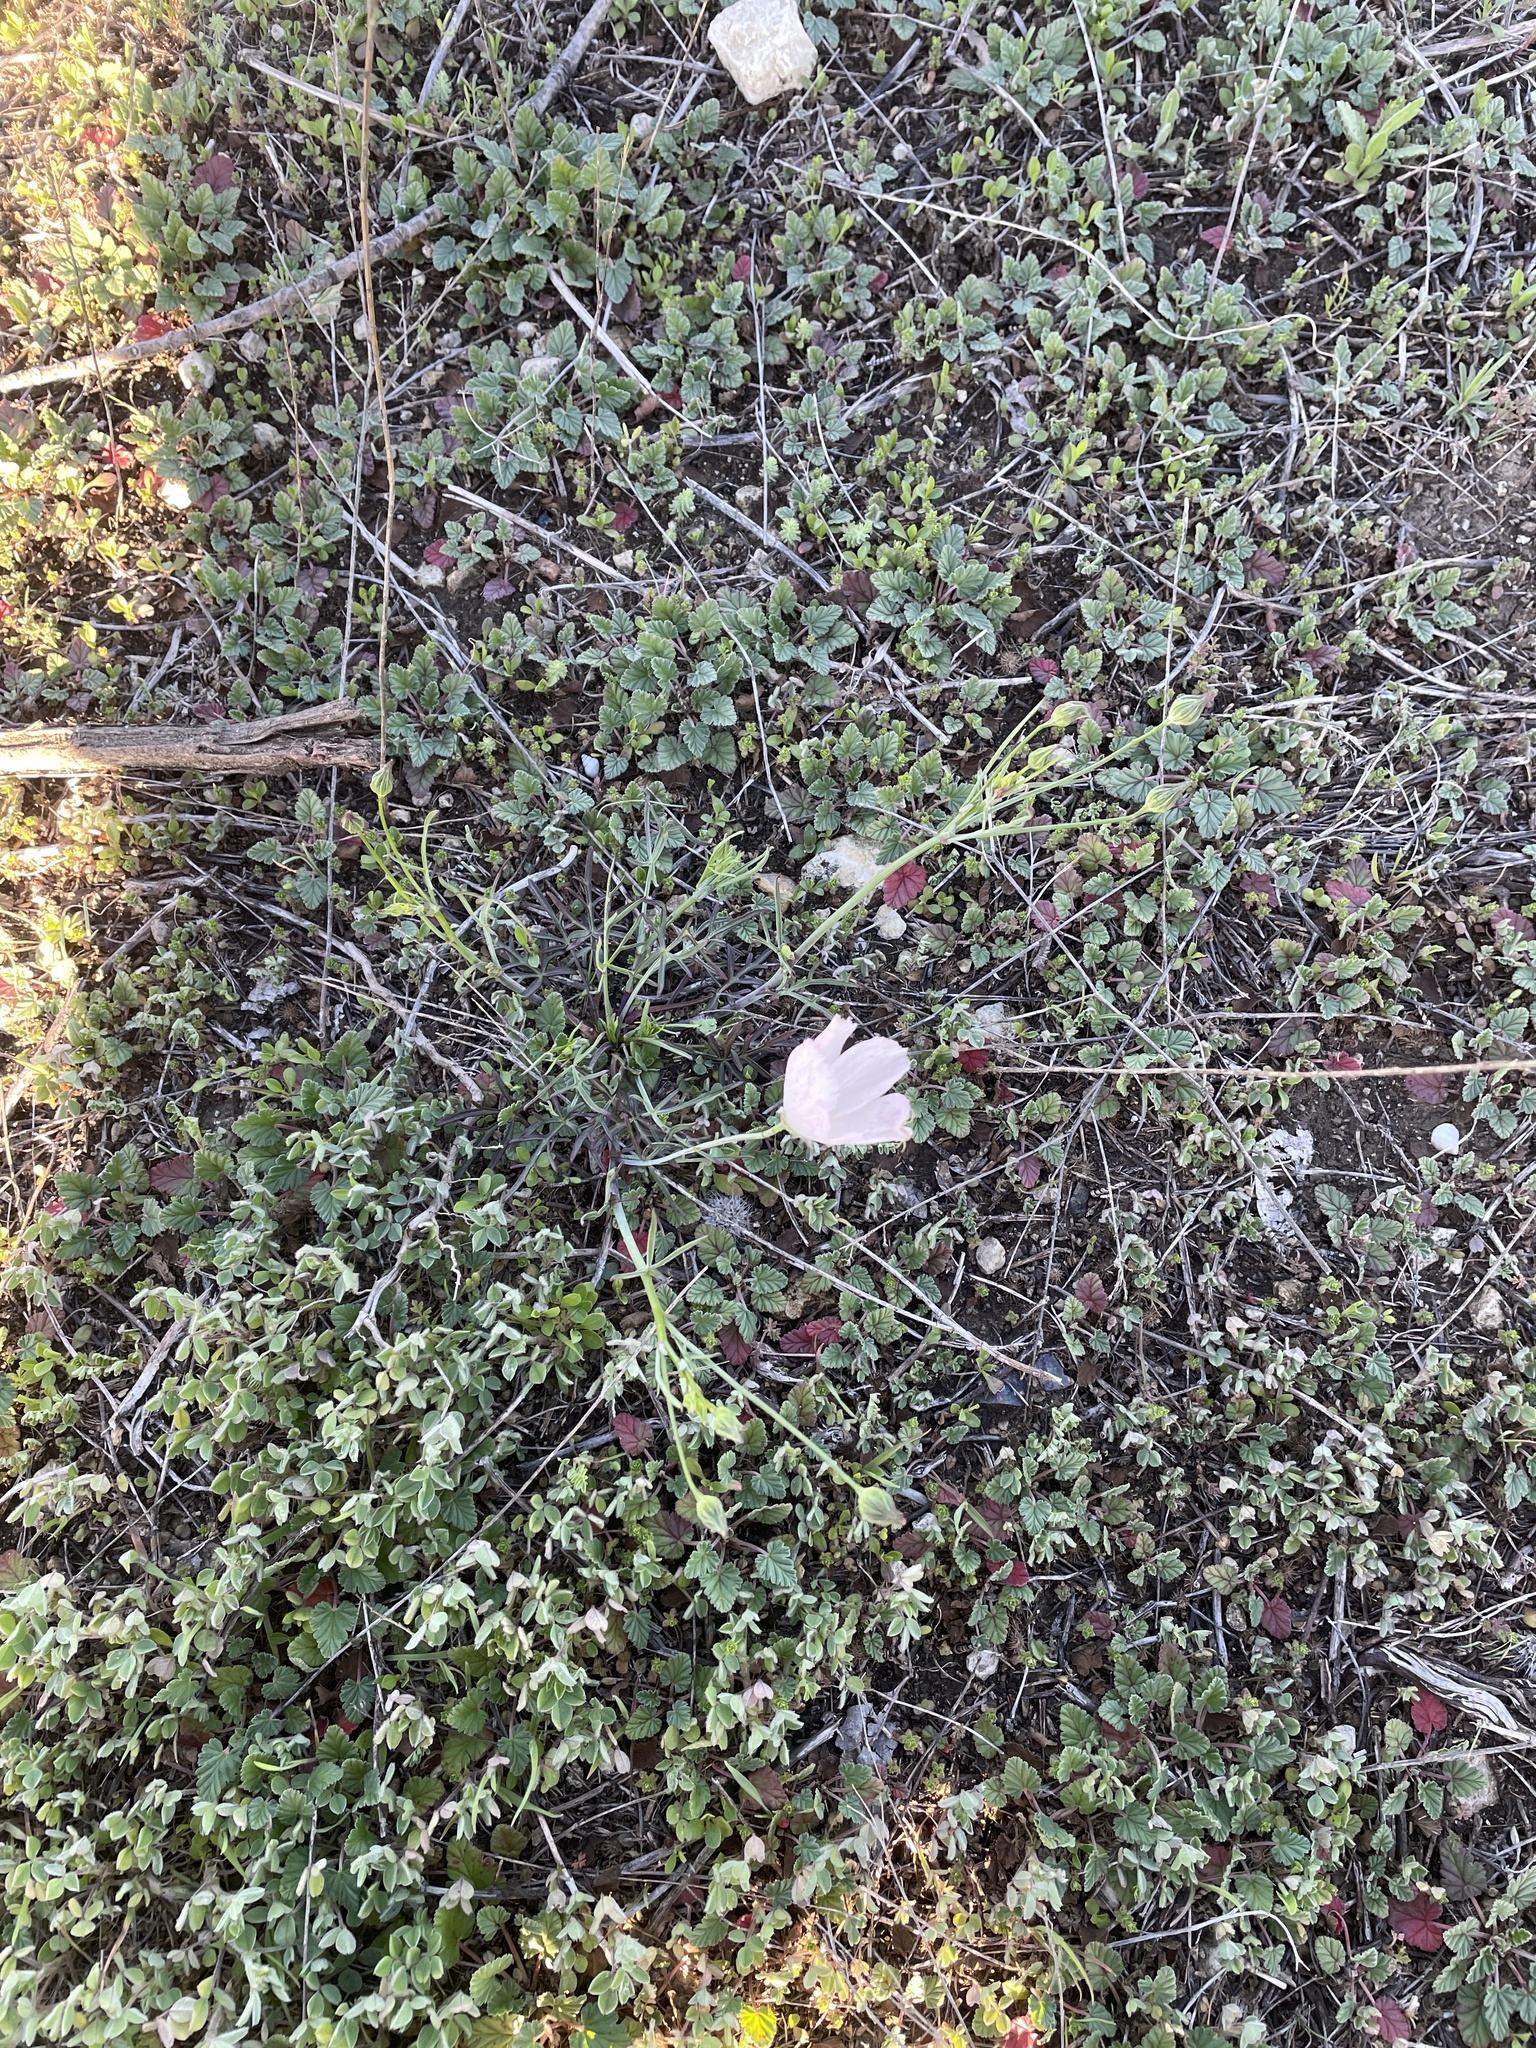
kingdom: Plantae
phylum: Tracheophyta
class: Magnoliopsida
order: Malvales
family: Malvaceae
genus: Callirhoe
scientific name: Callirhoe pedata
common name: Finger poppy-mallow
